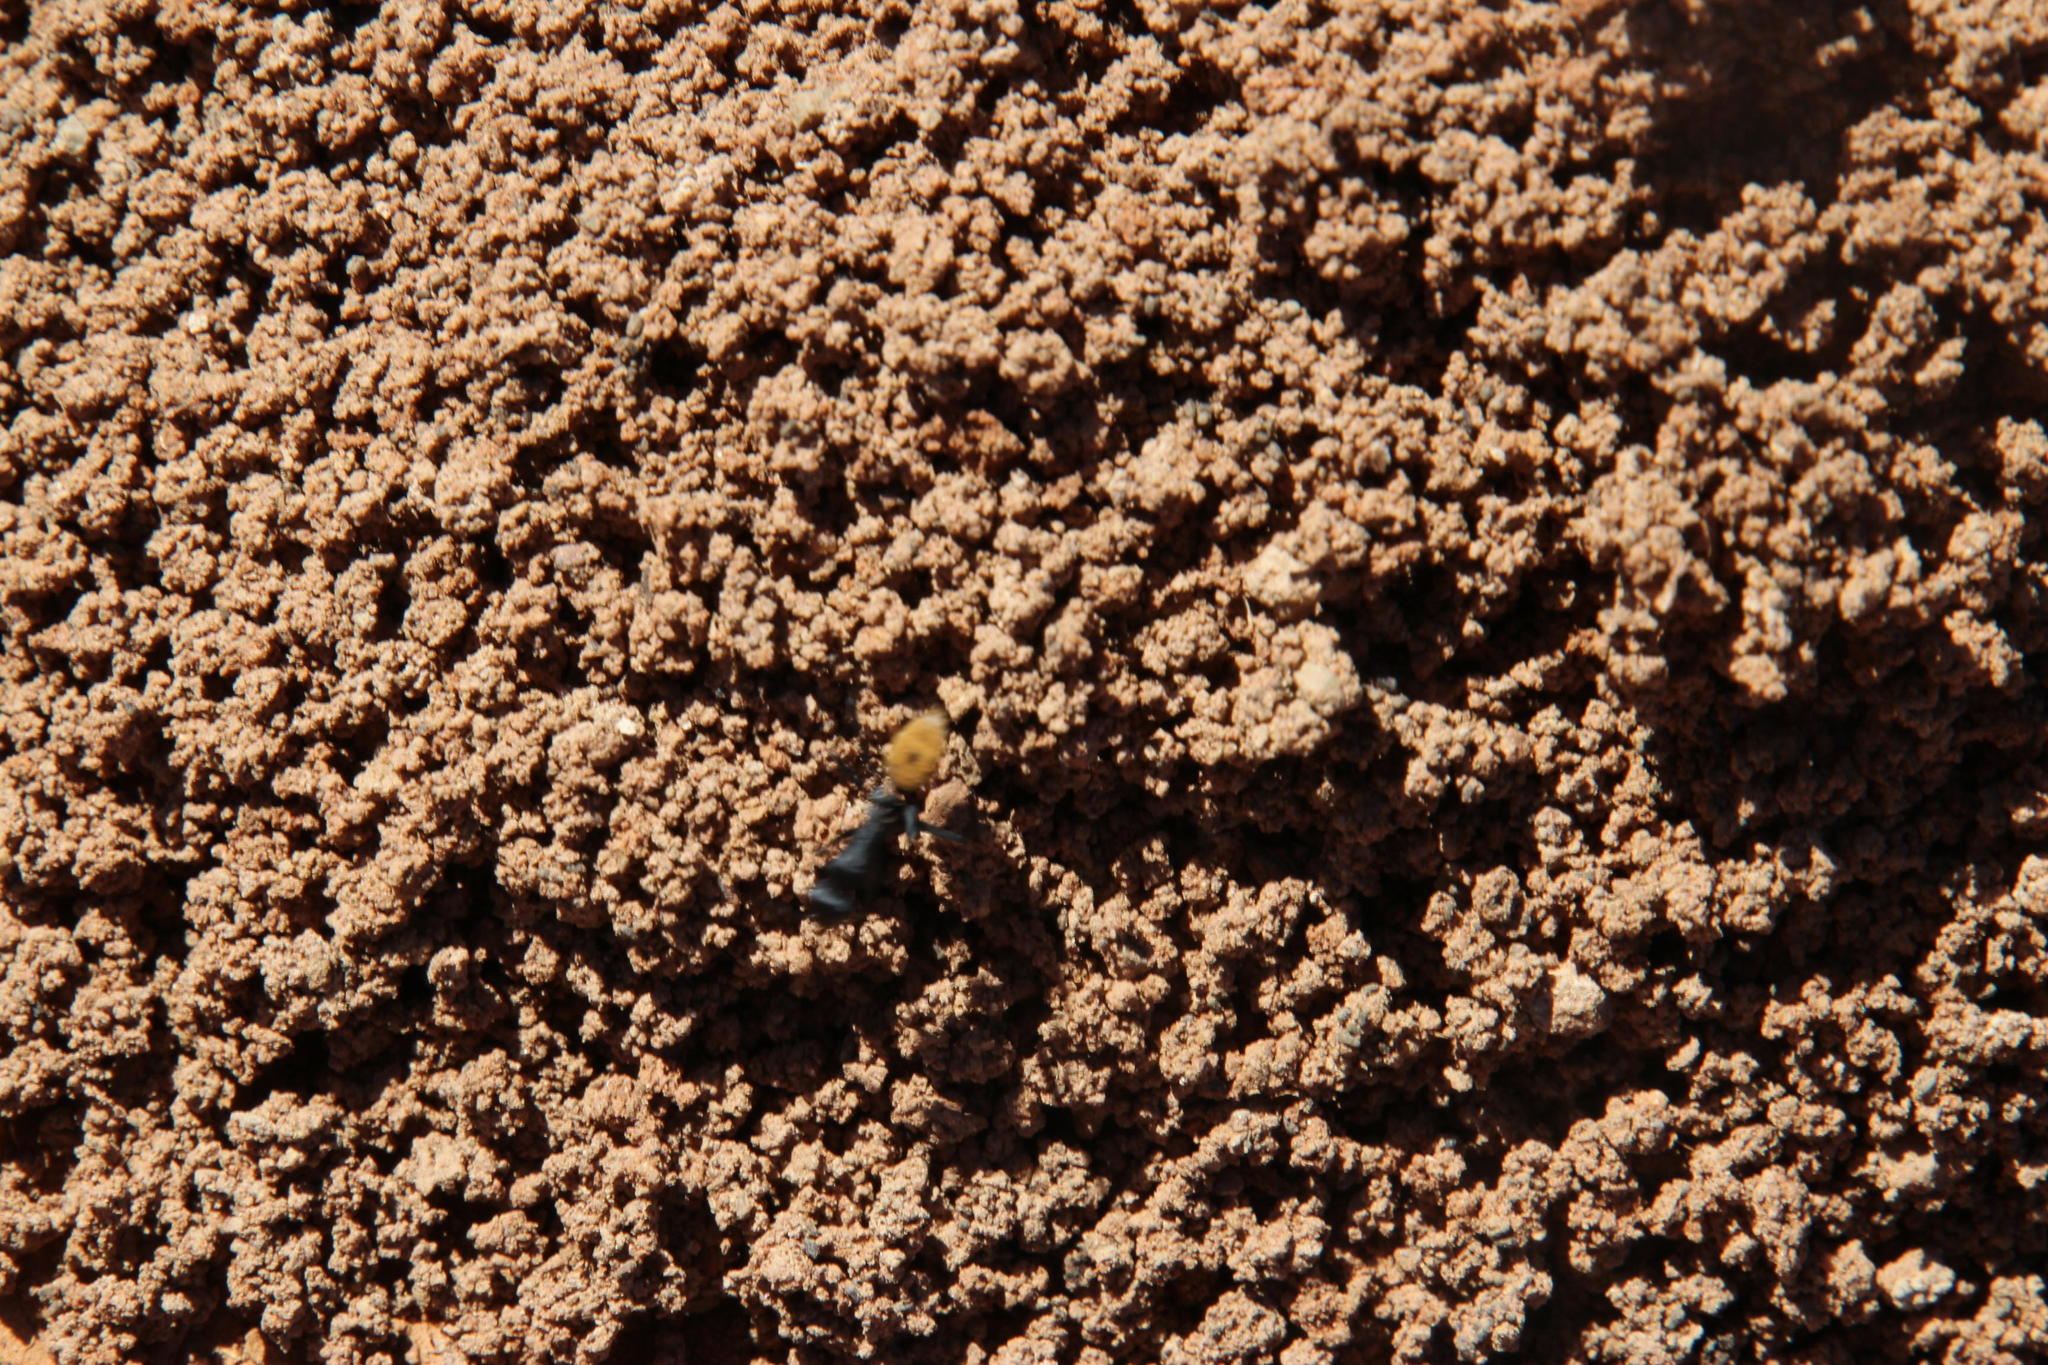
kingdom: Animalia
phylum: Arthropoda
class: Insecta
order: Hymenoptera
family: Formicidae
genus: Camponotus
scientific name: Camponotus fulvopilosus
